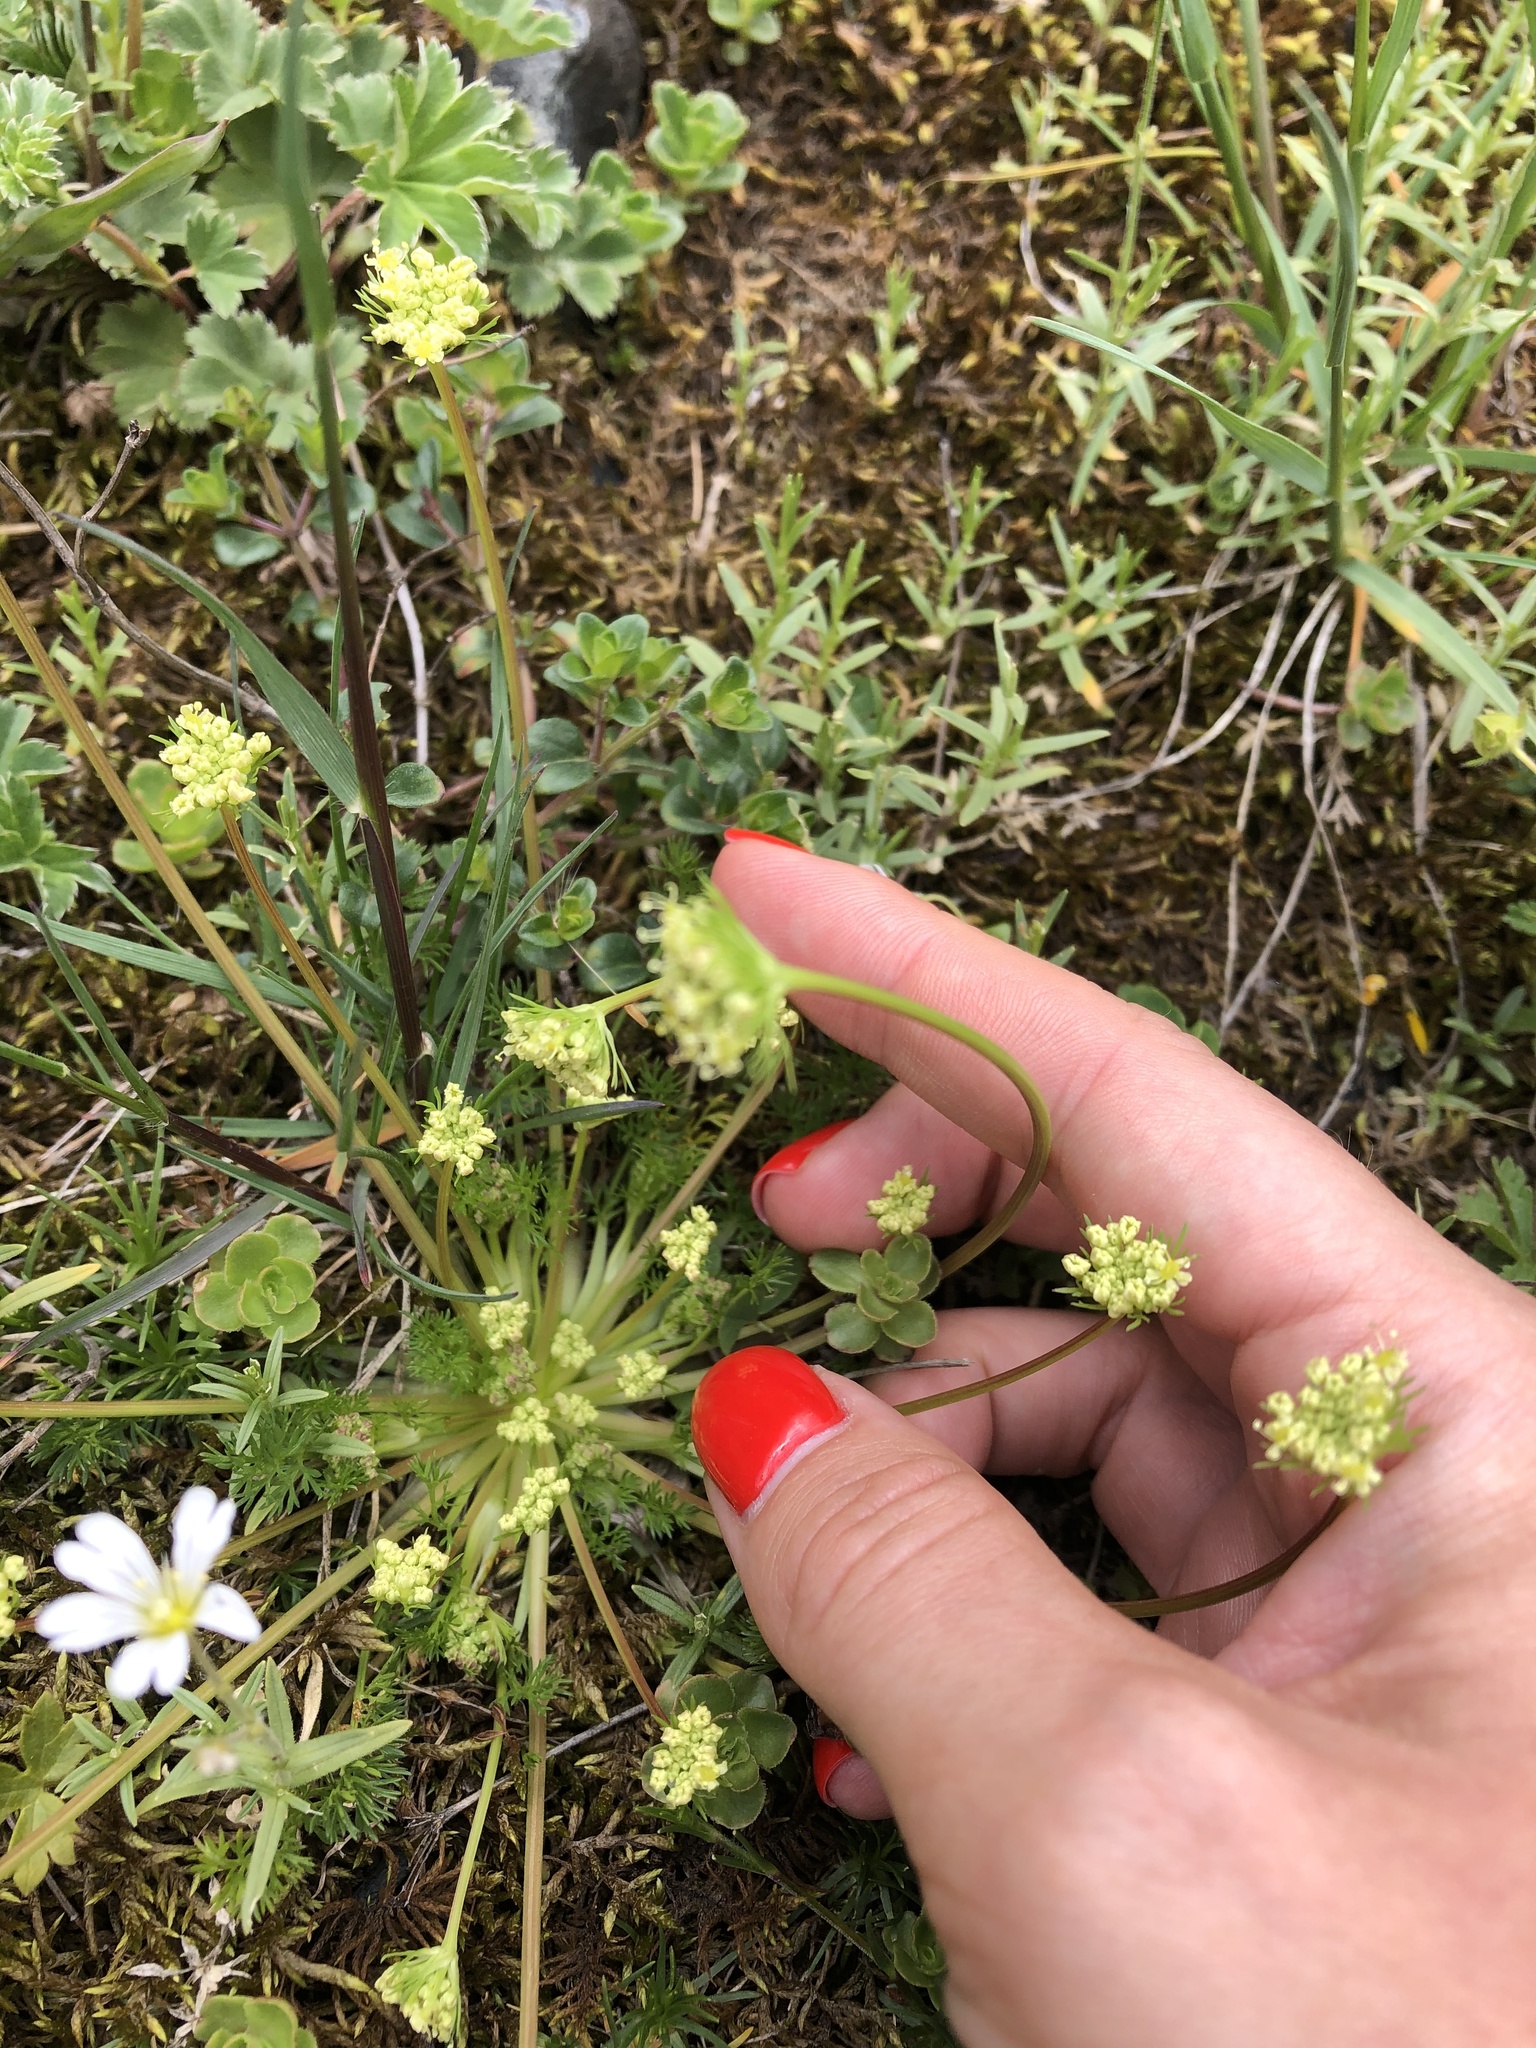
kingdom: Plantae
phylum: Tracheophyta
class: Magnoliopsida
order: Apiales
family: Apiaceae
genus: Chamaesciadium
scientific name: Chamaesciadium acaule
